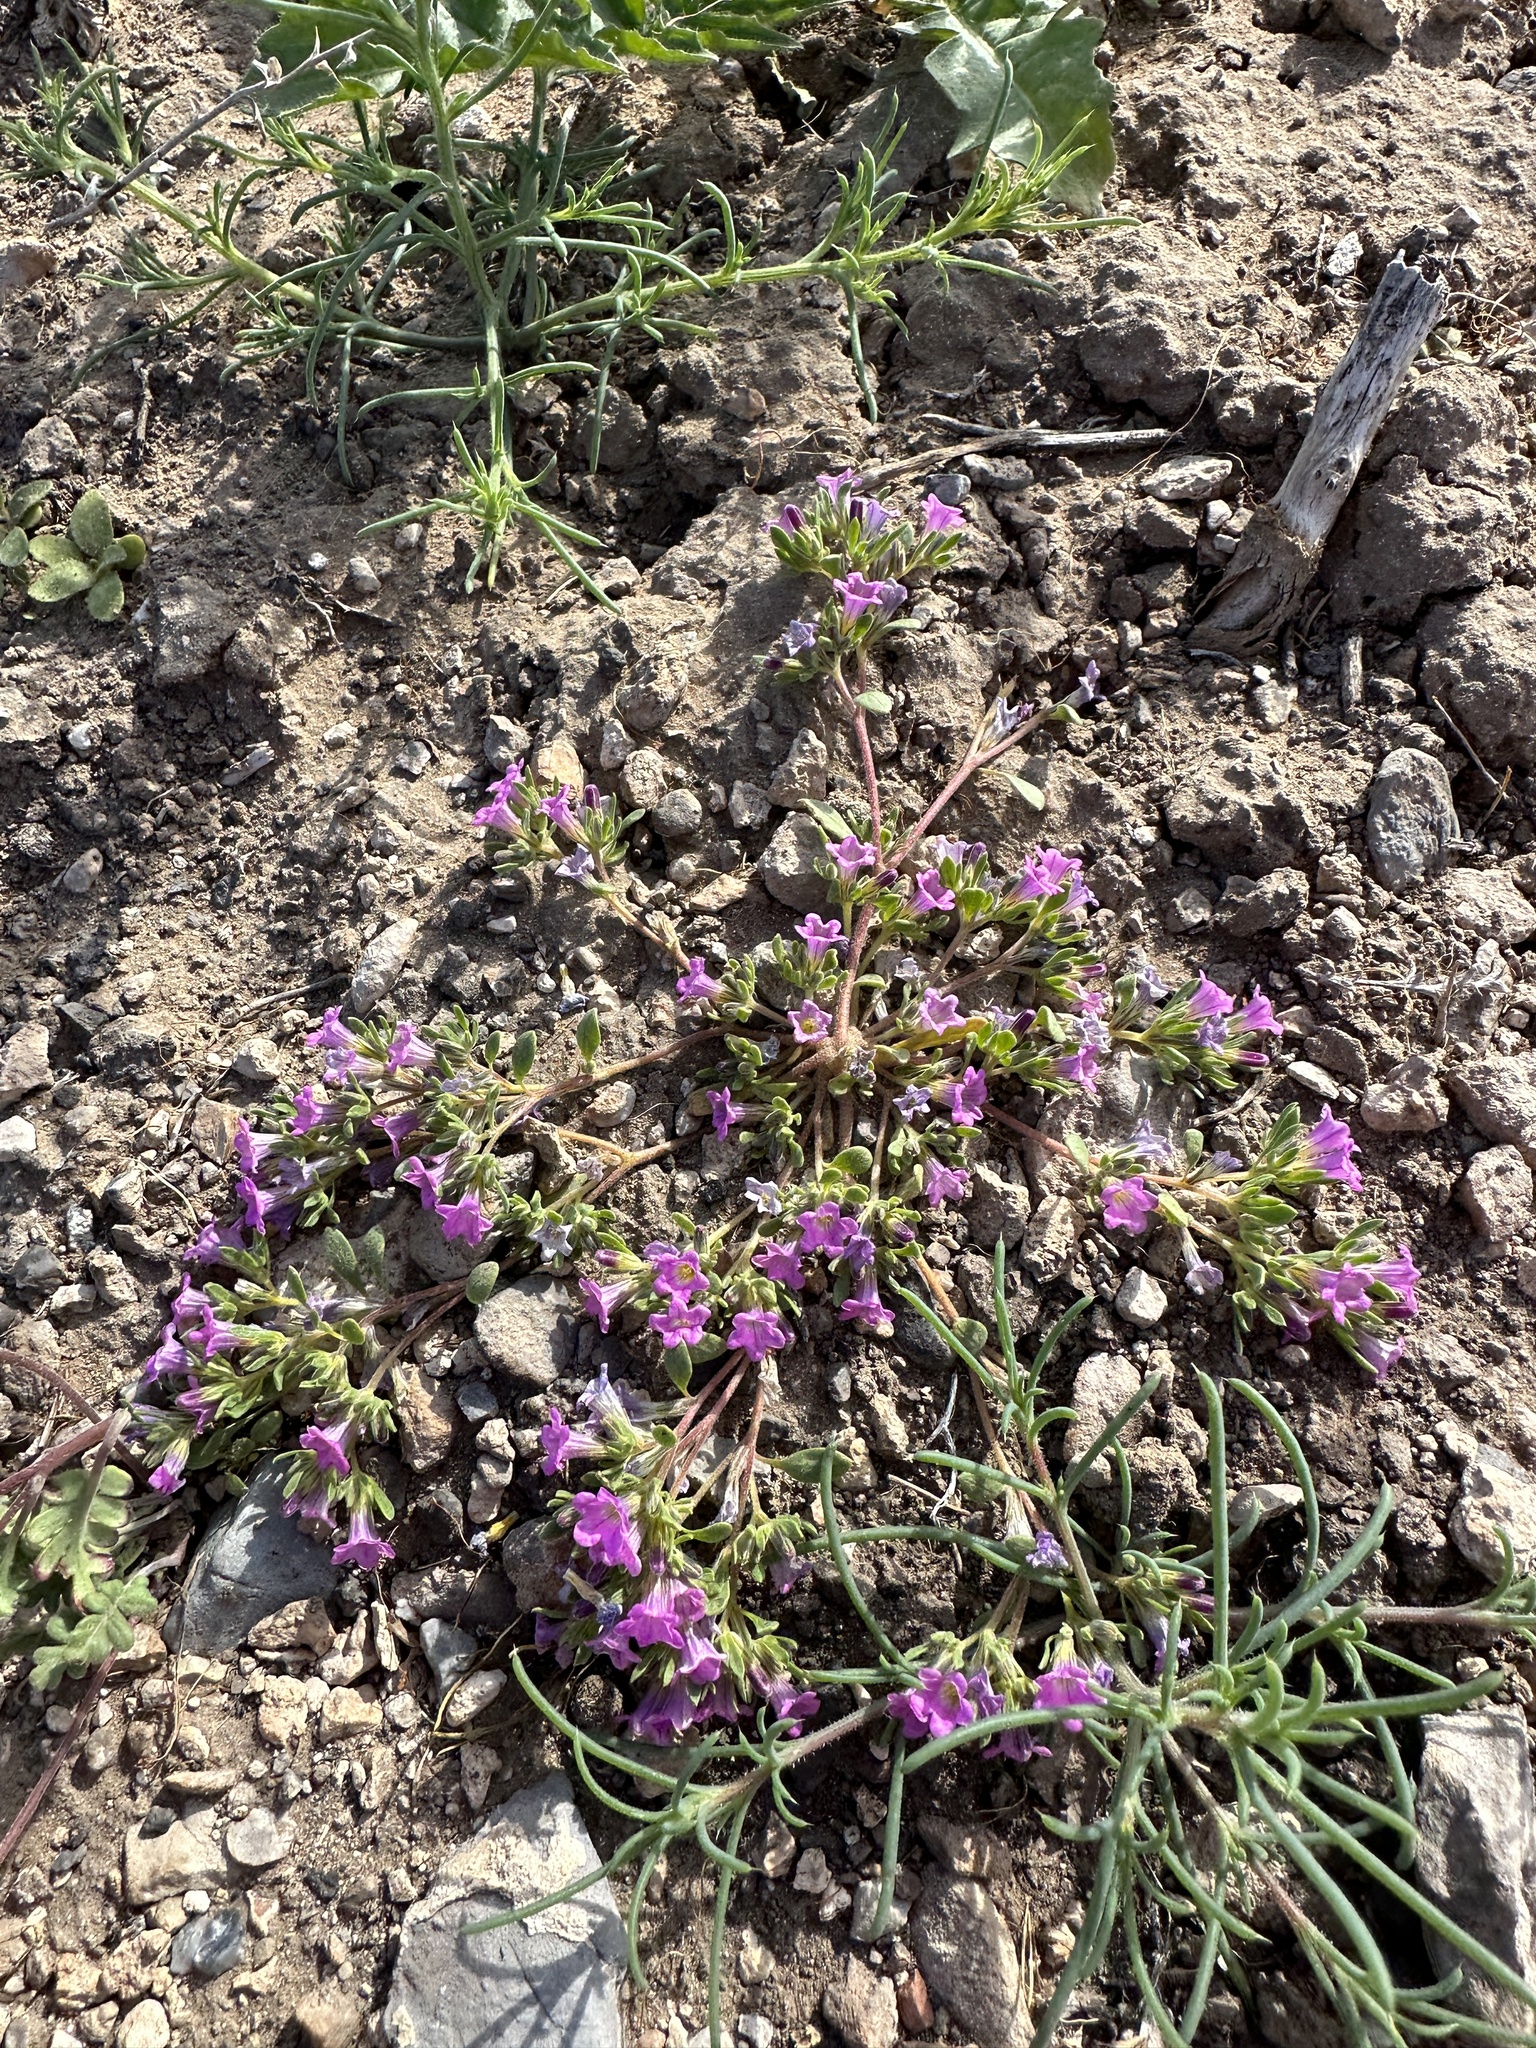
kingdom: Plantae
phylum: Tracheophyta
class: Magnoliopsida
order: Boraginales
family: Namaceae
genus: Nama
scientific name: Nama demissa
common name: Leafy nama
